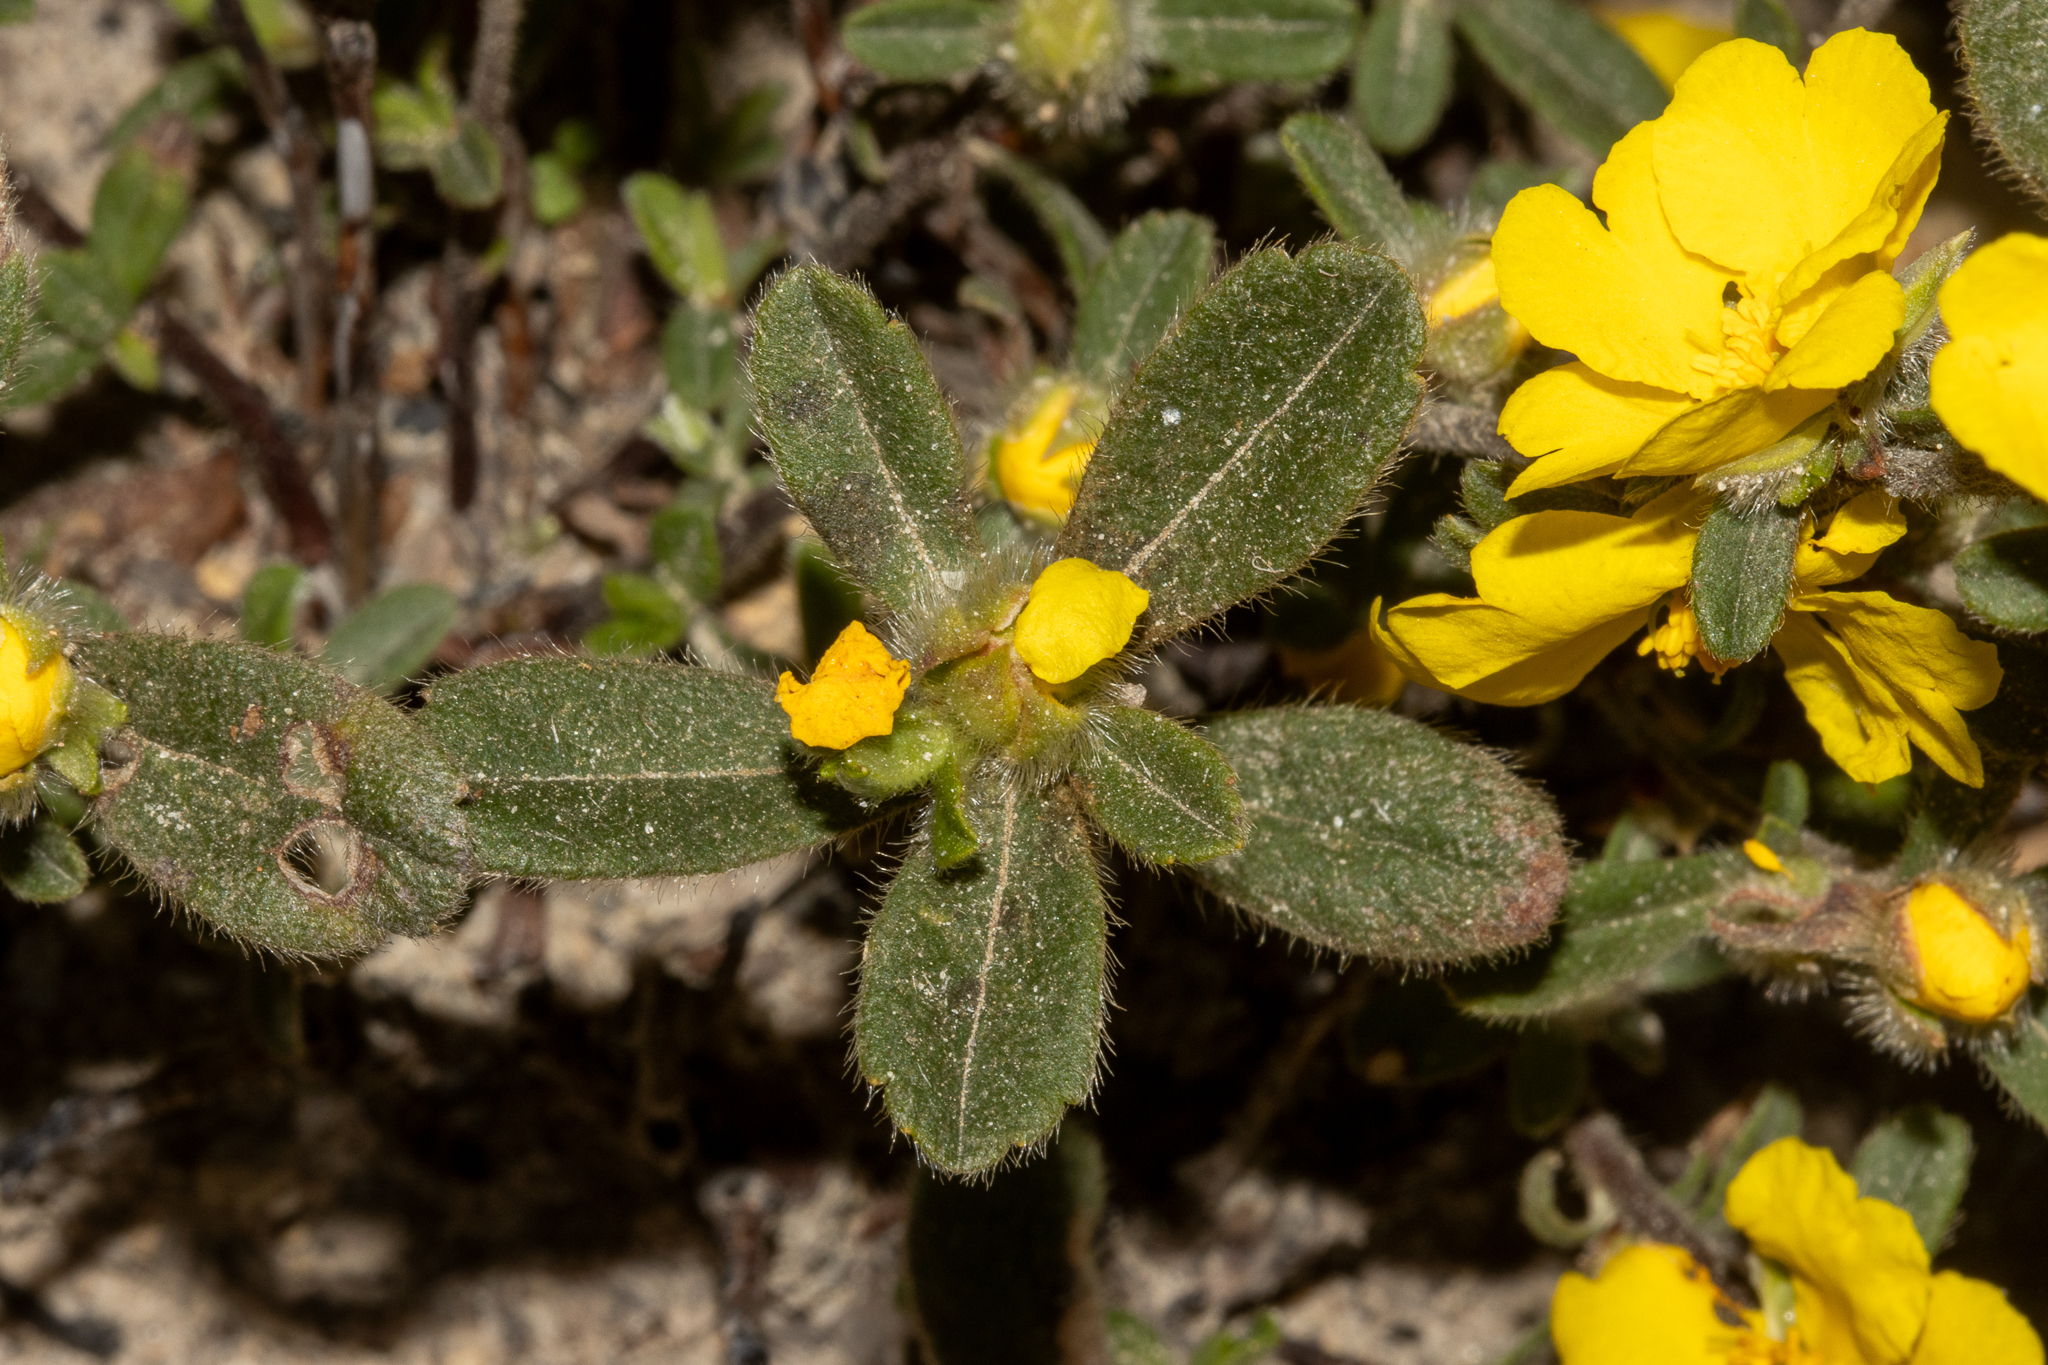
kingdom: Plantae
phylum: Tracheophyta
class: Magnoliopsida
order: Dilleniales
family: Dilleniaceae
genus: Hibbertia
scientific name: Hibbertia commutata
